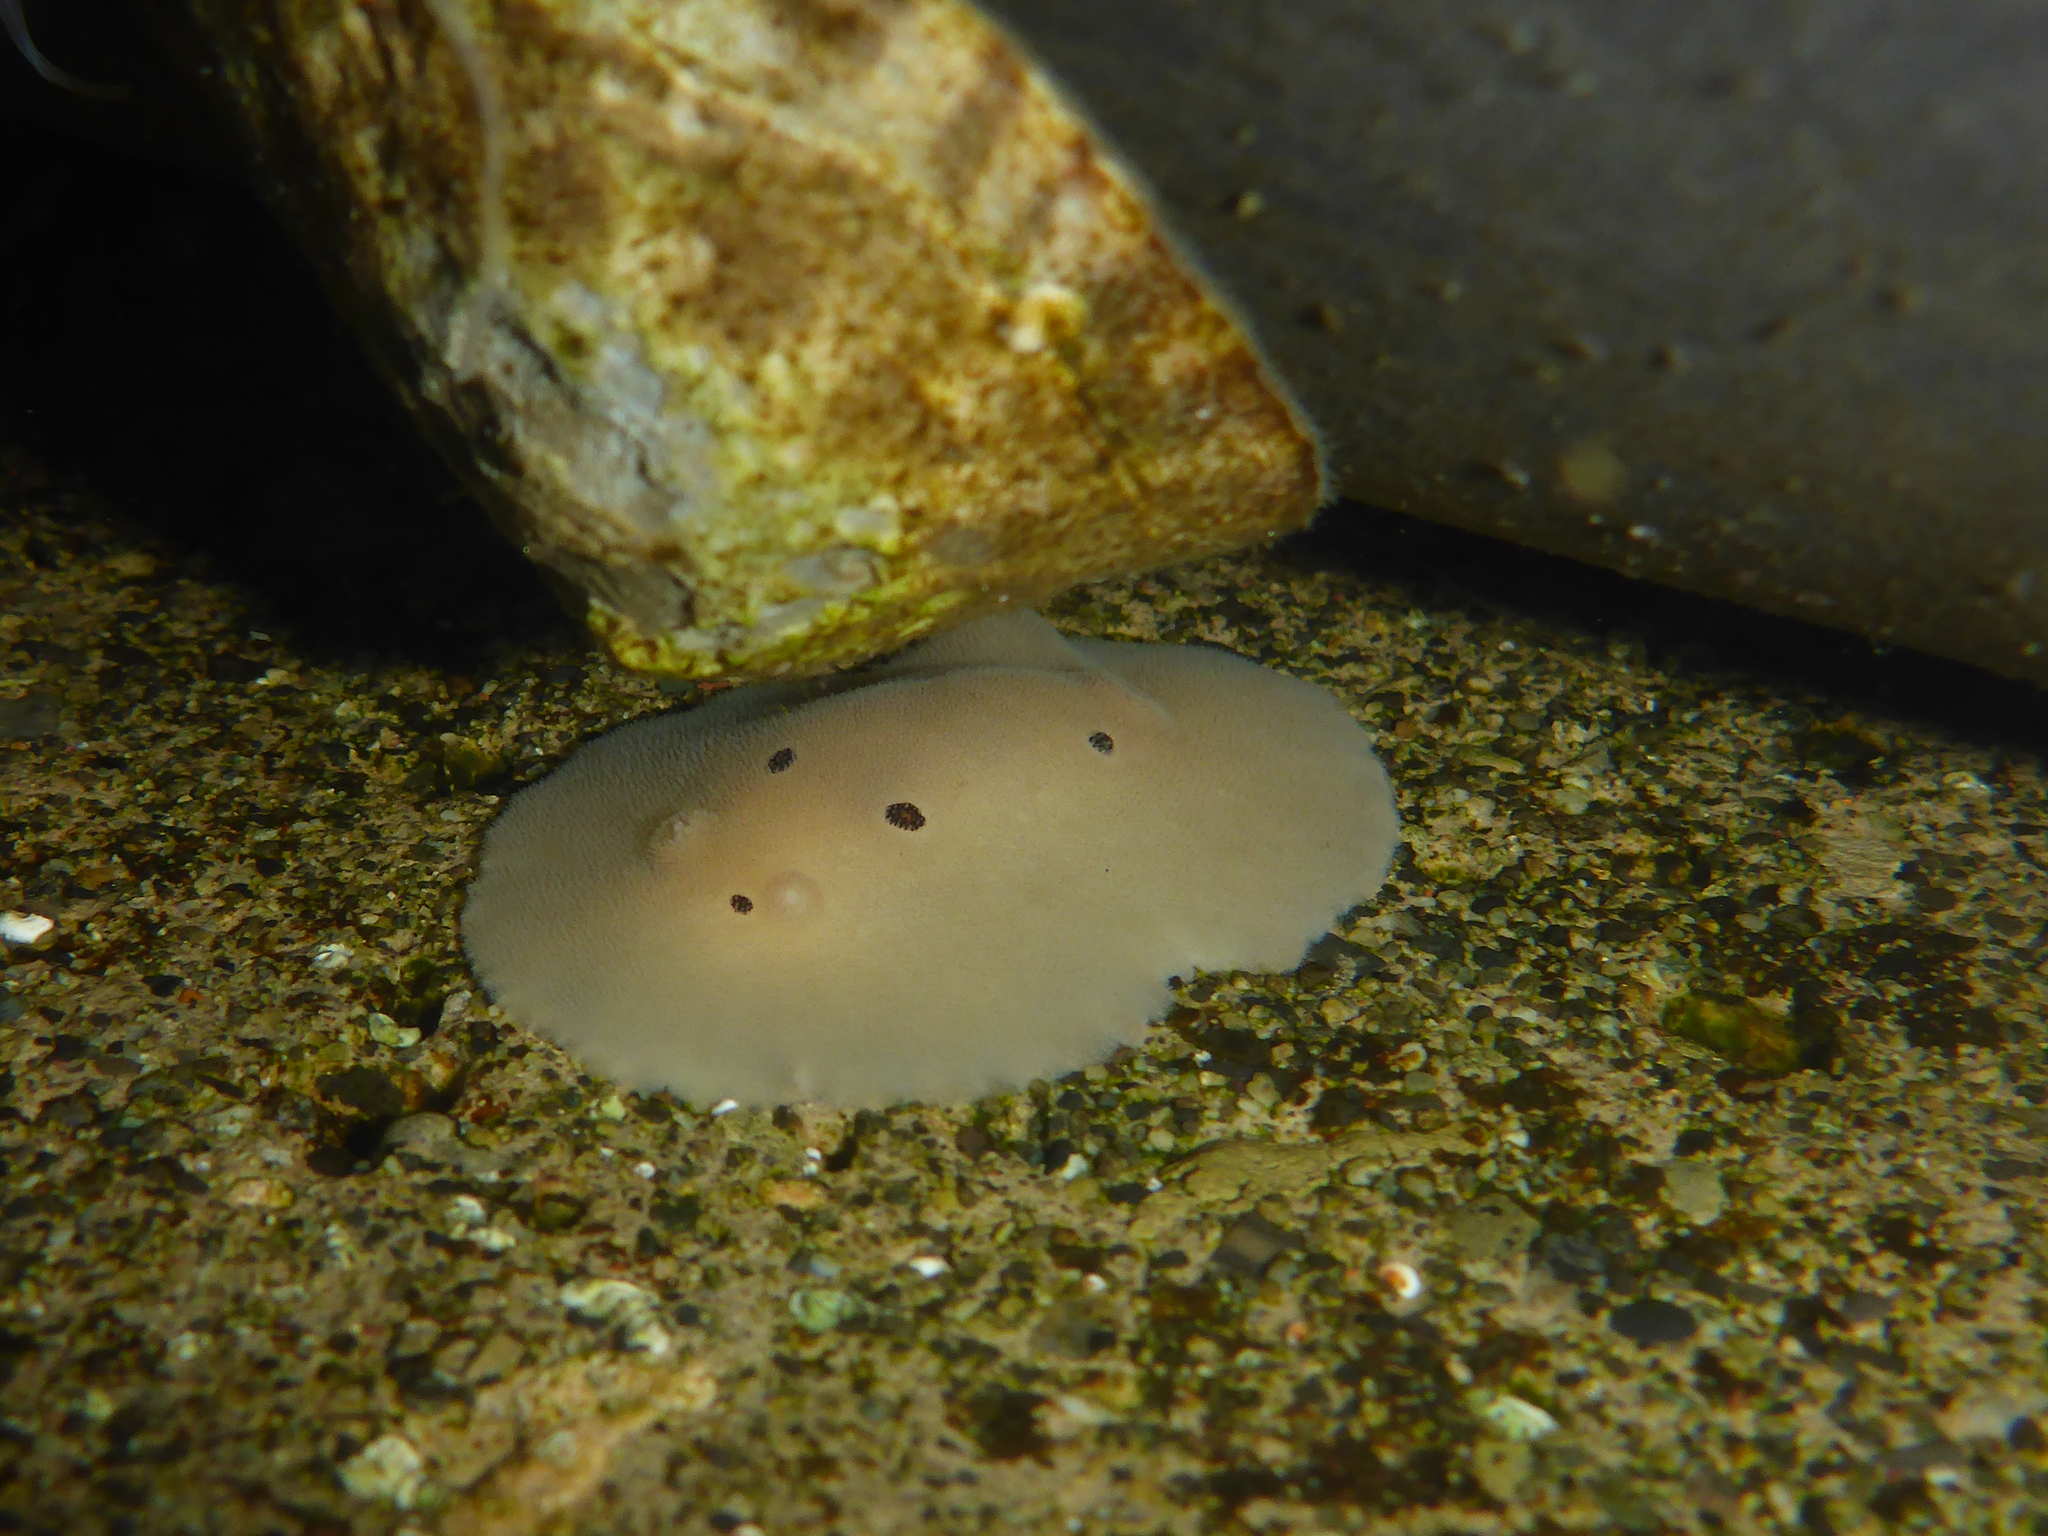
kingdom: Animalia
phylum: Mollusca
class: Gastropoda
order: Nudibranchia
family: Discodorididae
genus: Diaulula
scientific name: Diaulula sandiegensis
